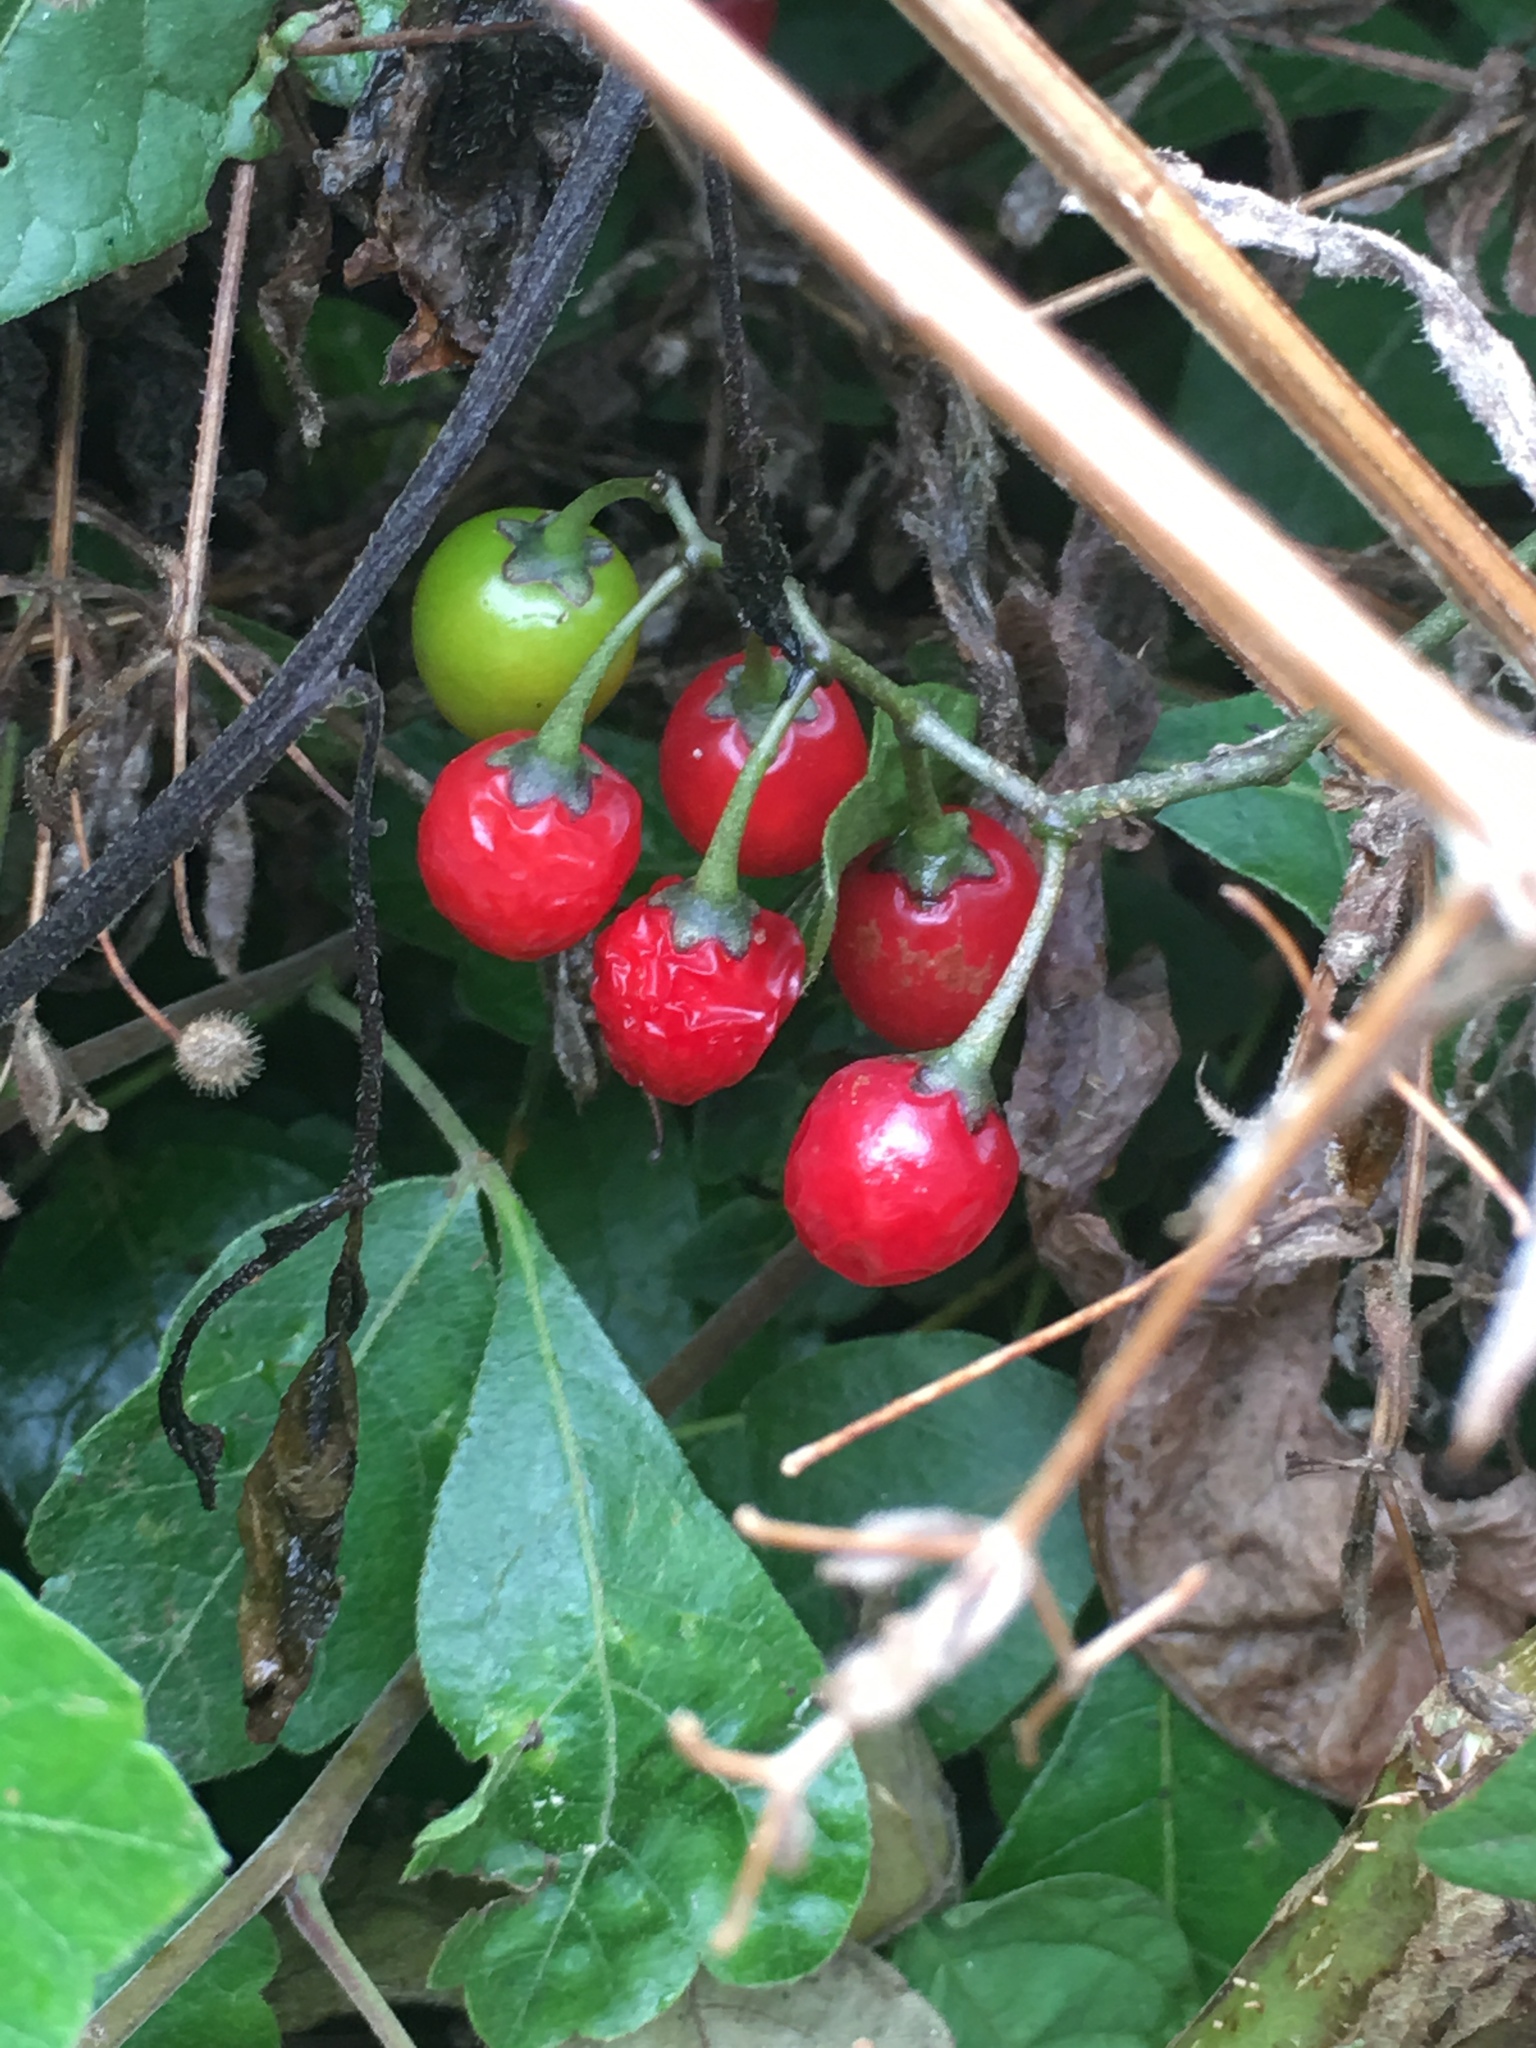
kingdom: Plantae
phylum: Tracheophyta
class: Magnoliopsida
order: Solanales
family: Solanaceae
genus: Solanum
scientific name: Solanum dulcamara
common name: Climbing nightshade
